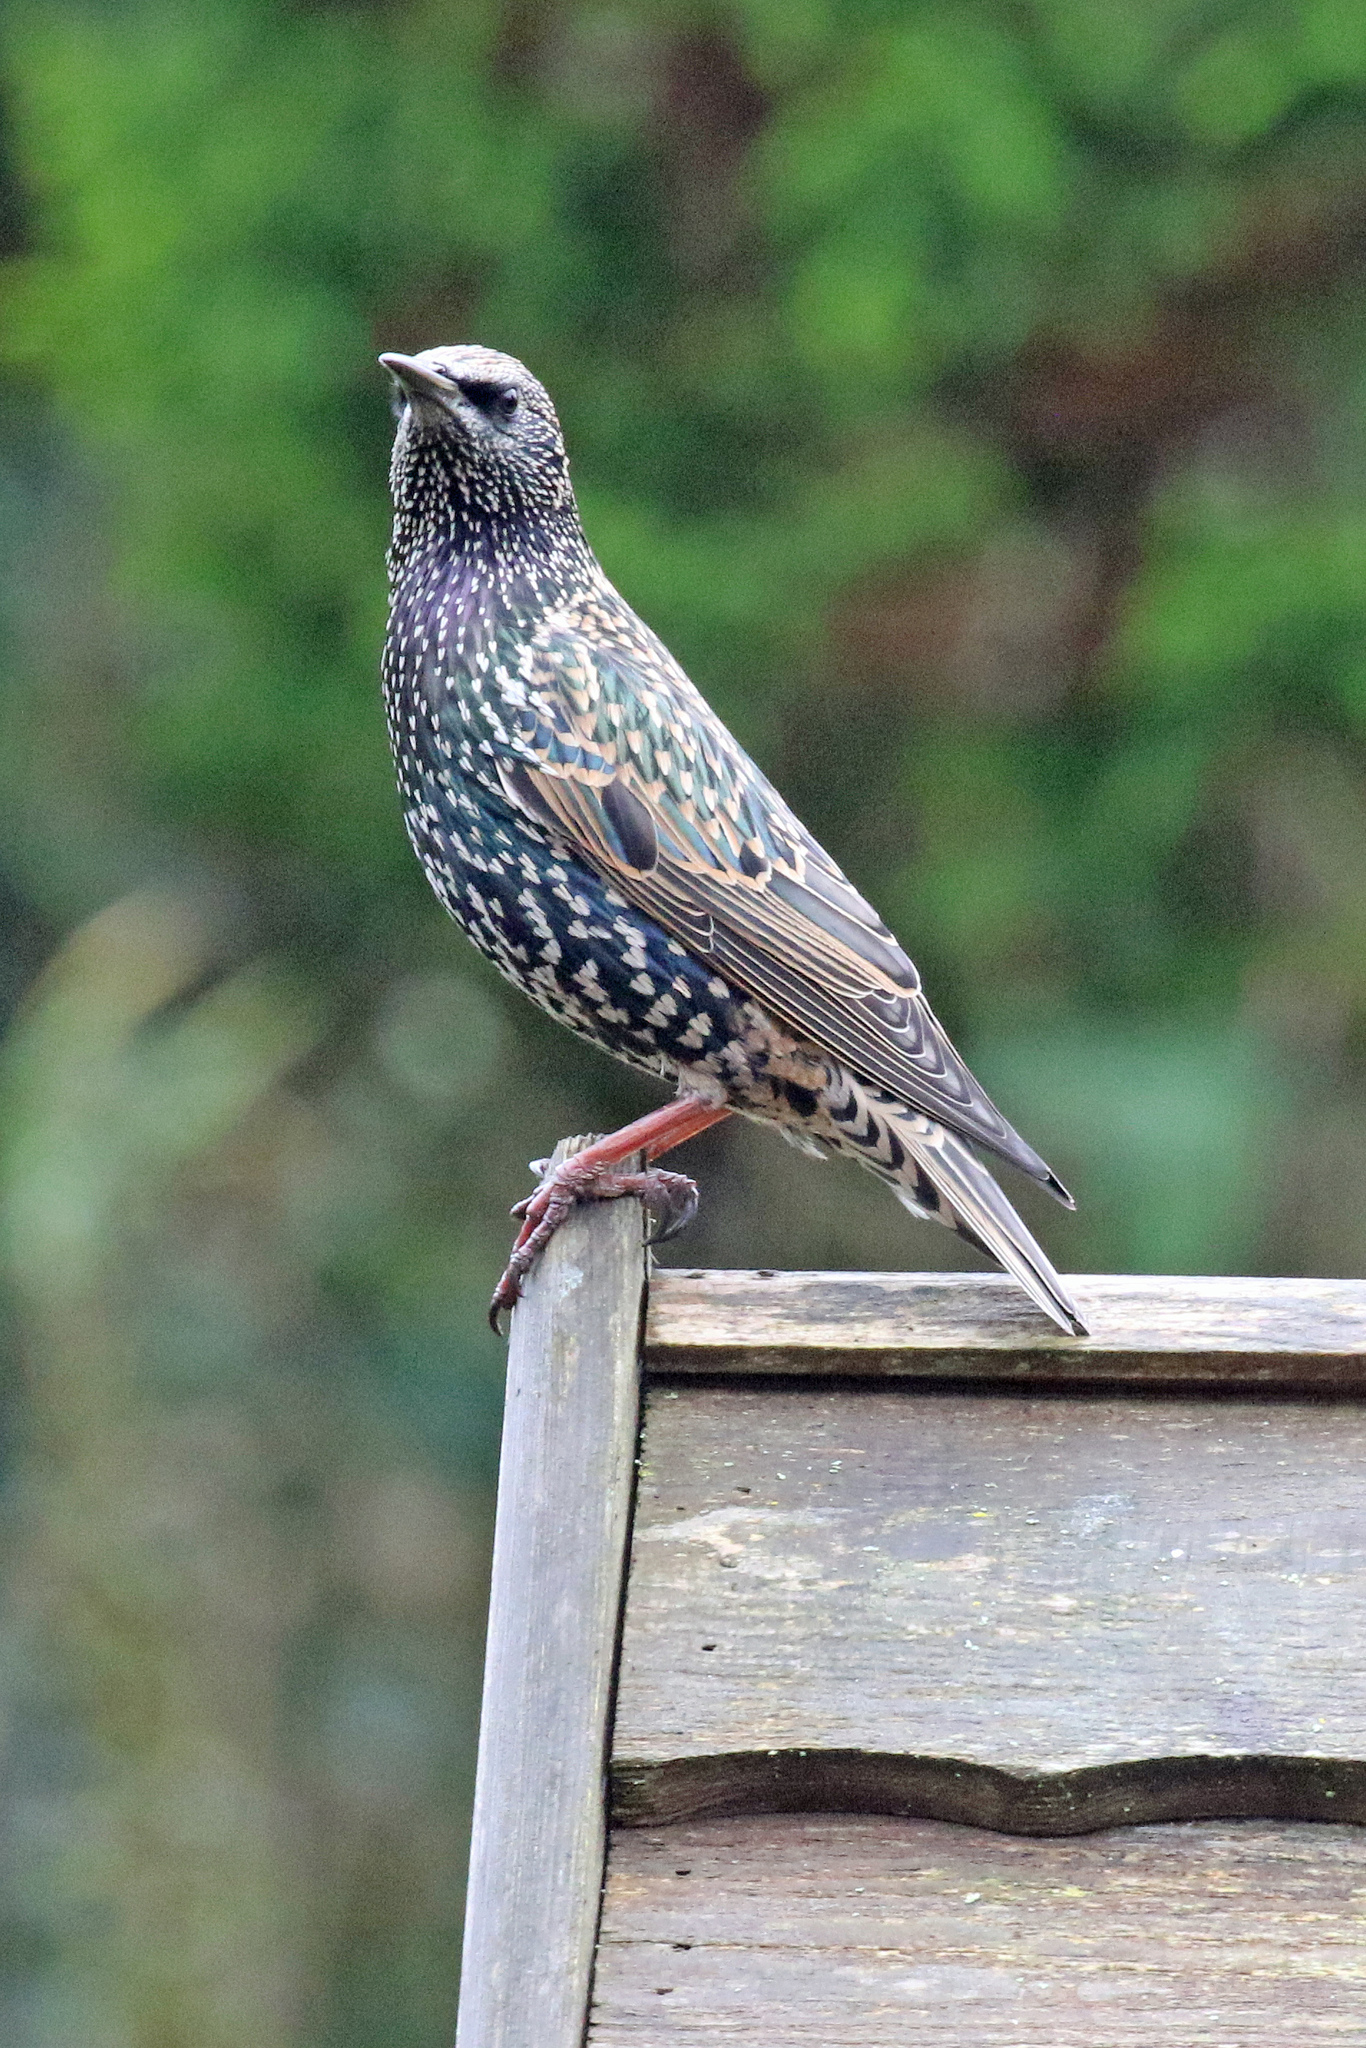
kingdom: Animalia
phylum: Chordata
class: Aves
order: Passeriformes
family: Sturnidae
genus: Sturnus
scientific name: Sturnus vulgaris
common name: Common starling
